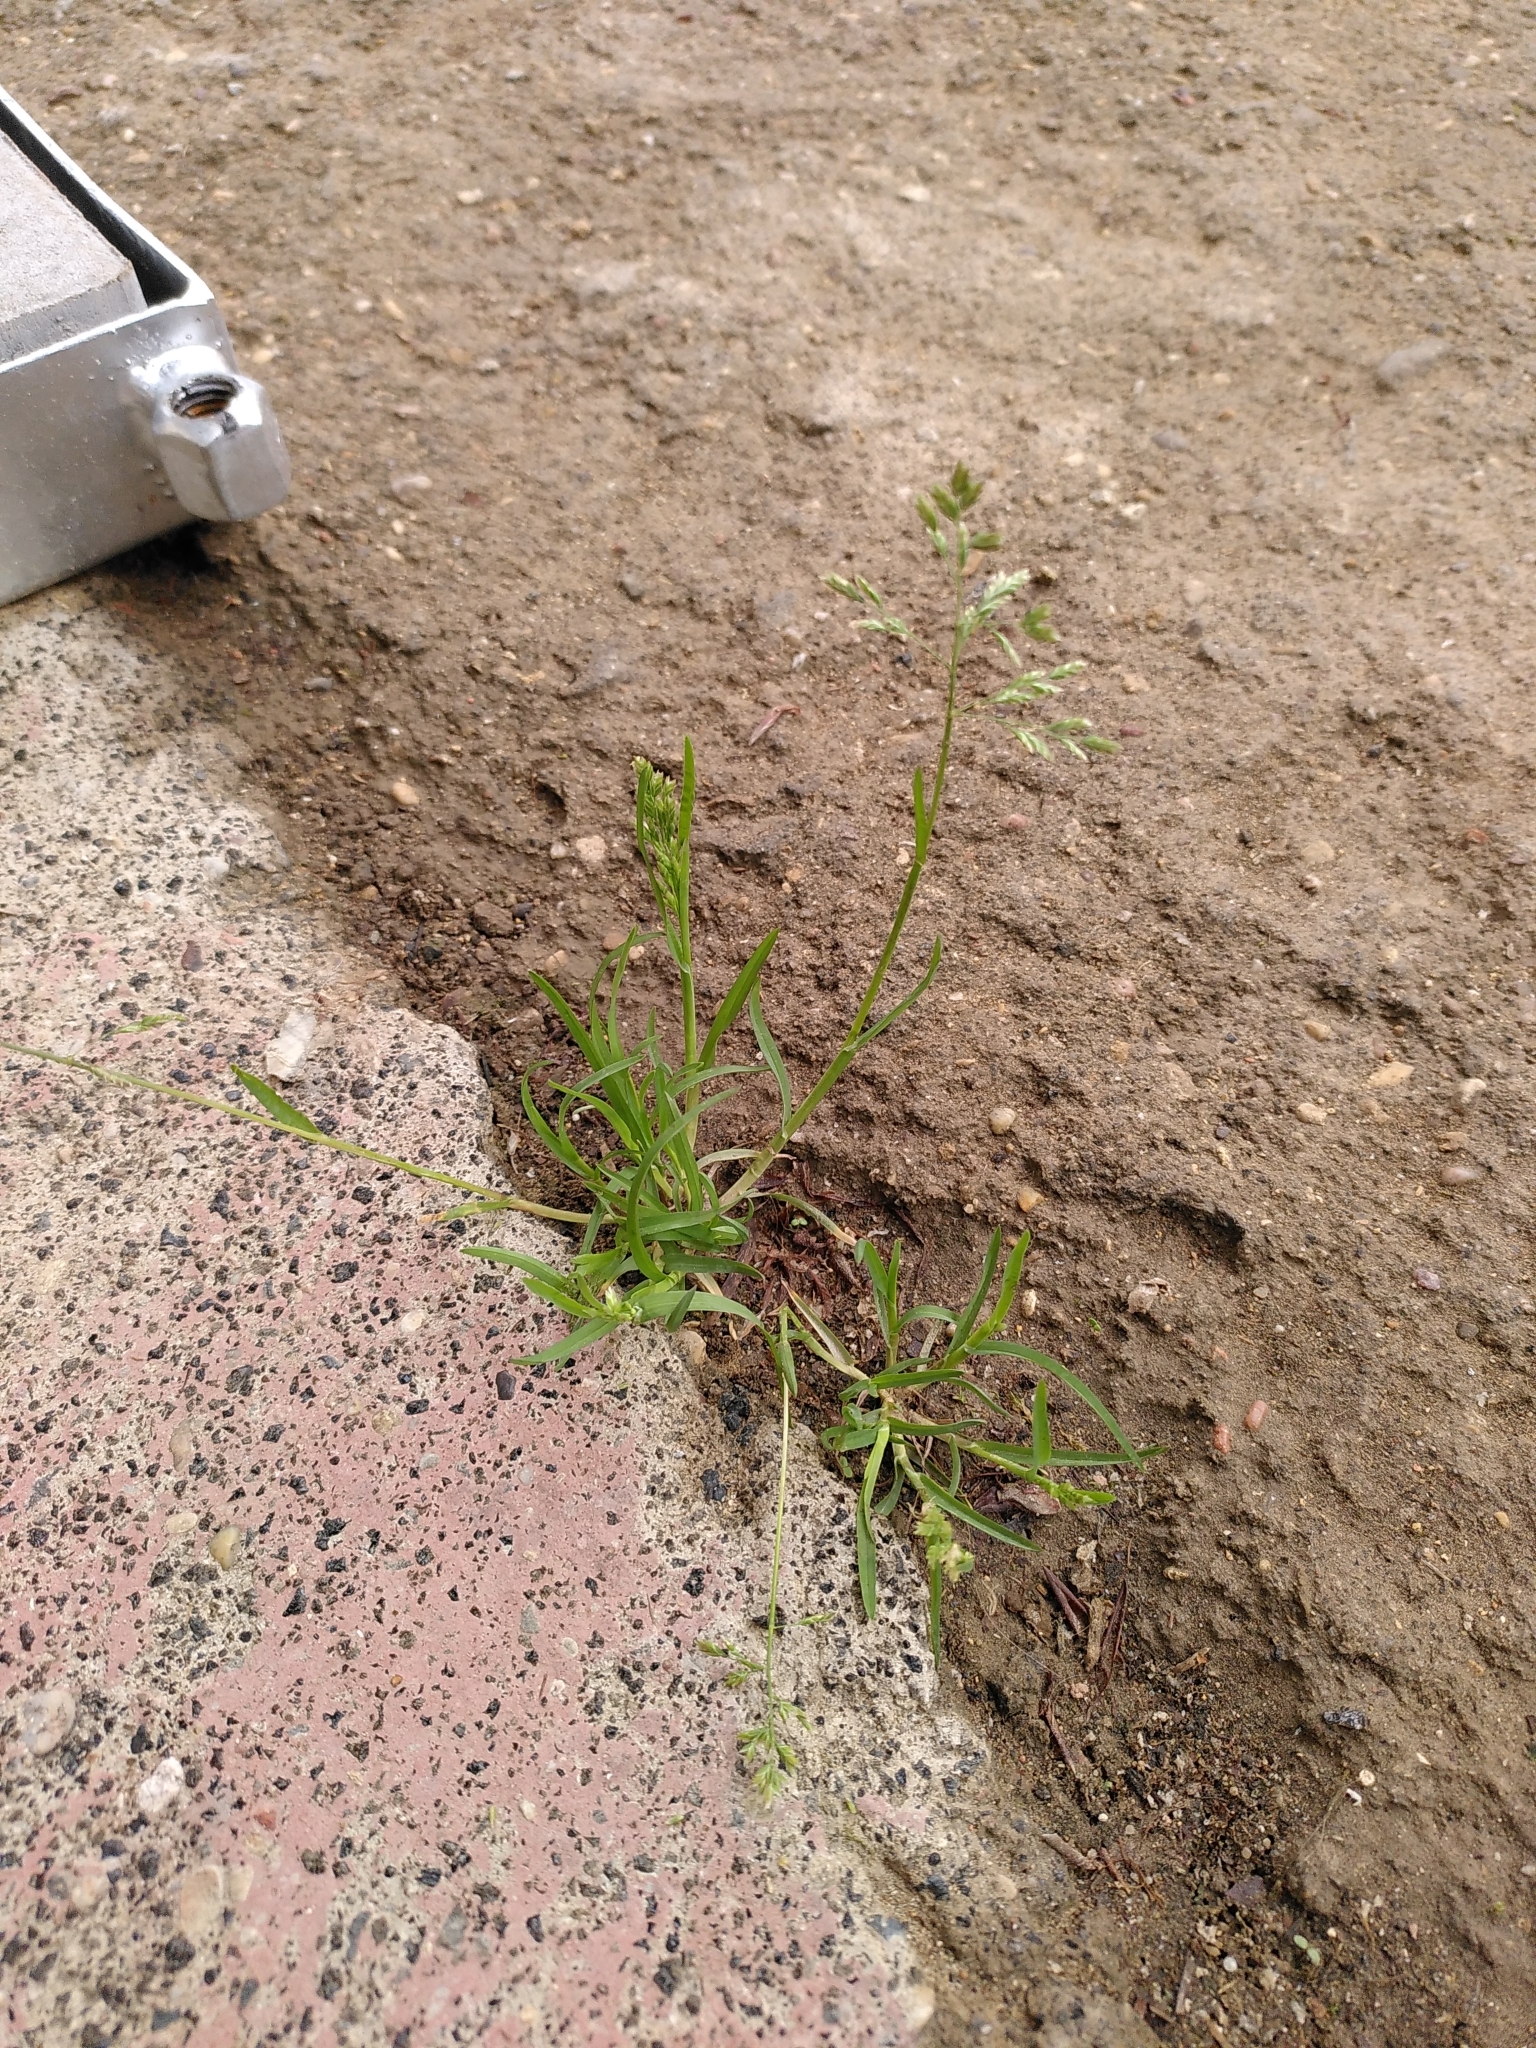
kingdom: Plantae
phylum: Tracheophyta
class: Liliopsida
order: Poales
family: Poaceae
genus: Poa
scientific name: Poa annua
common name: Annual bluegrass
